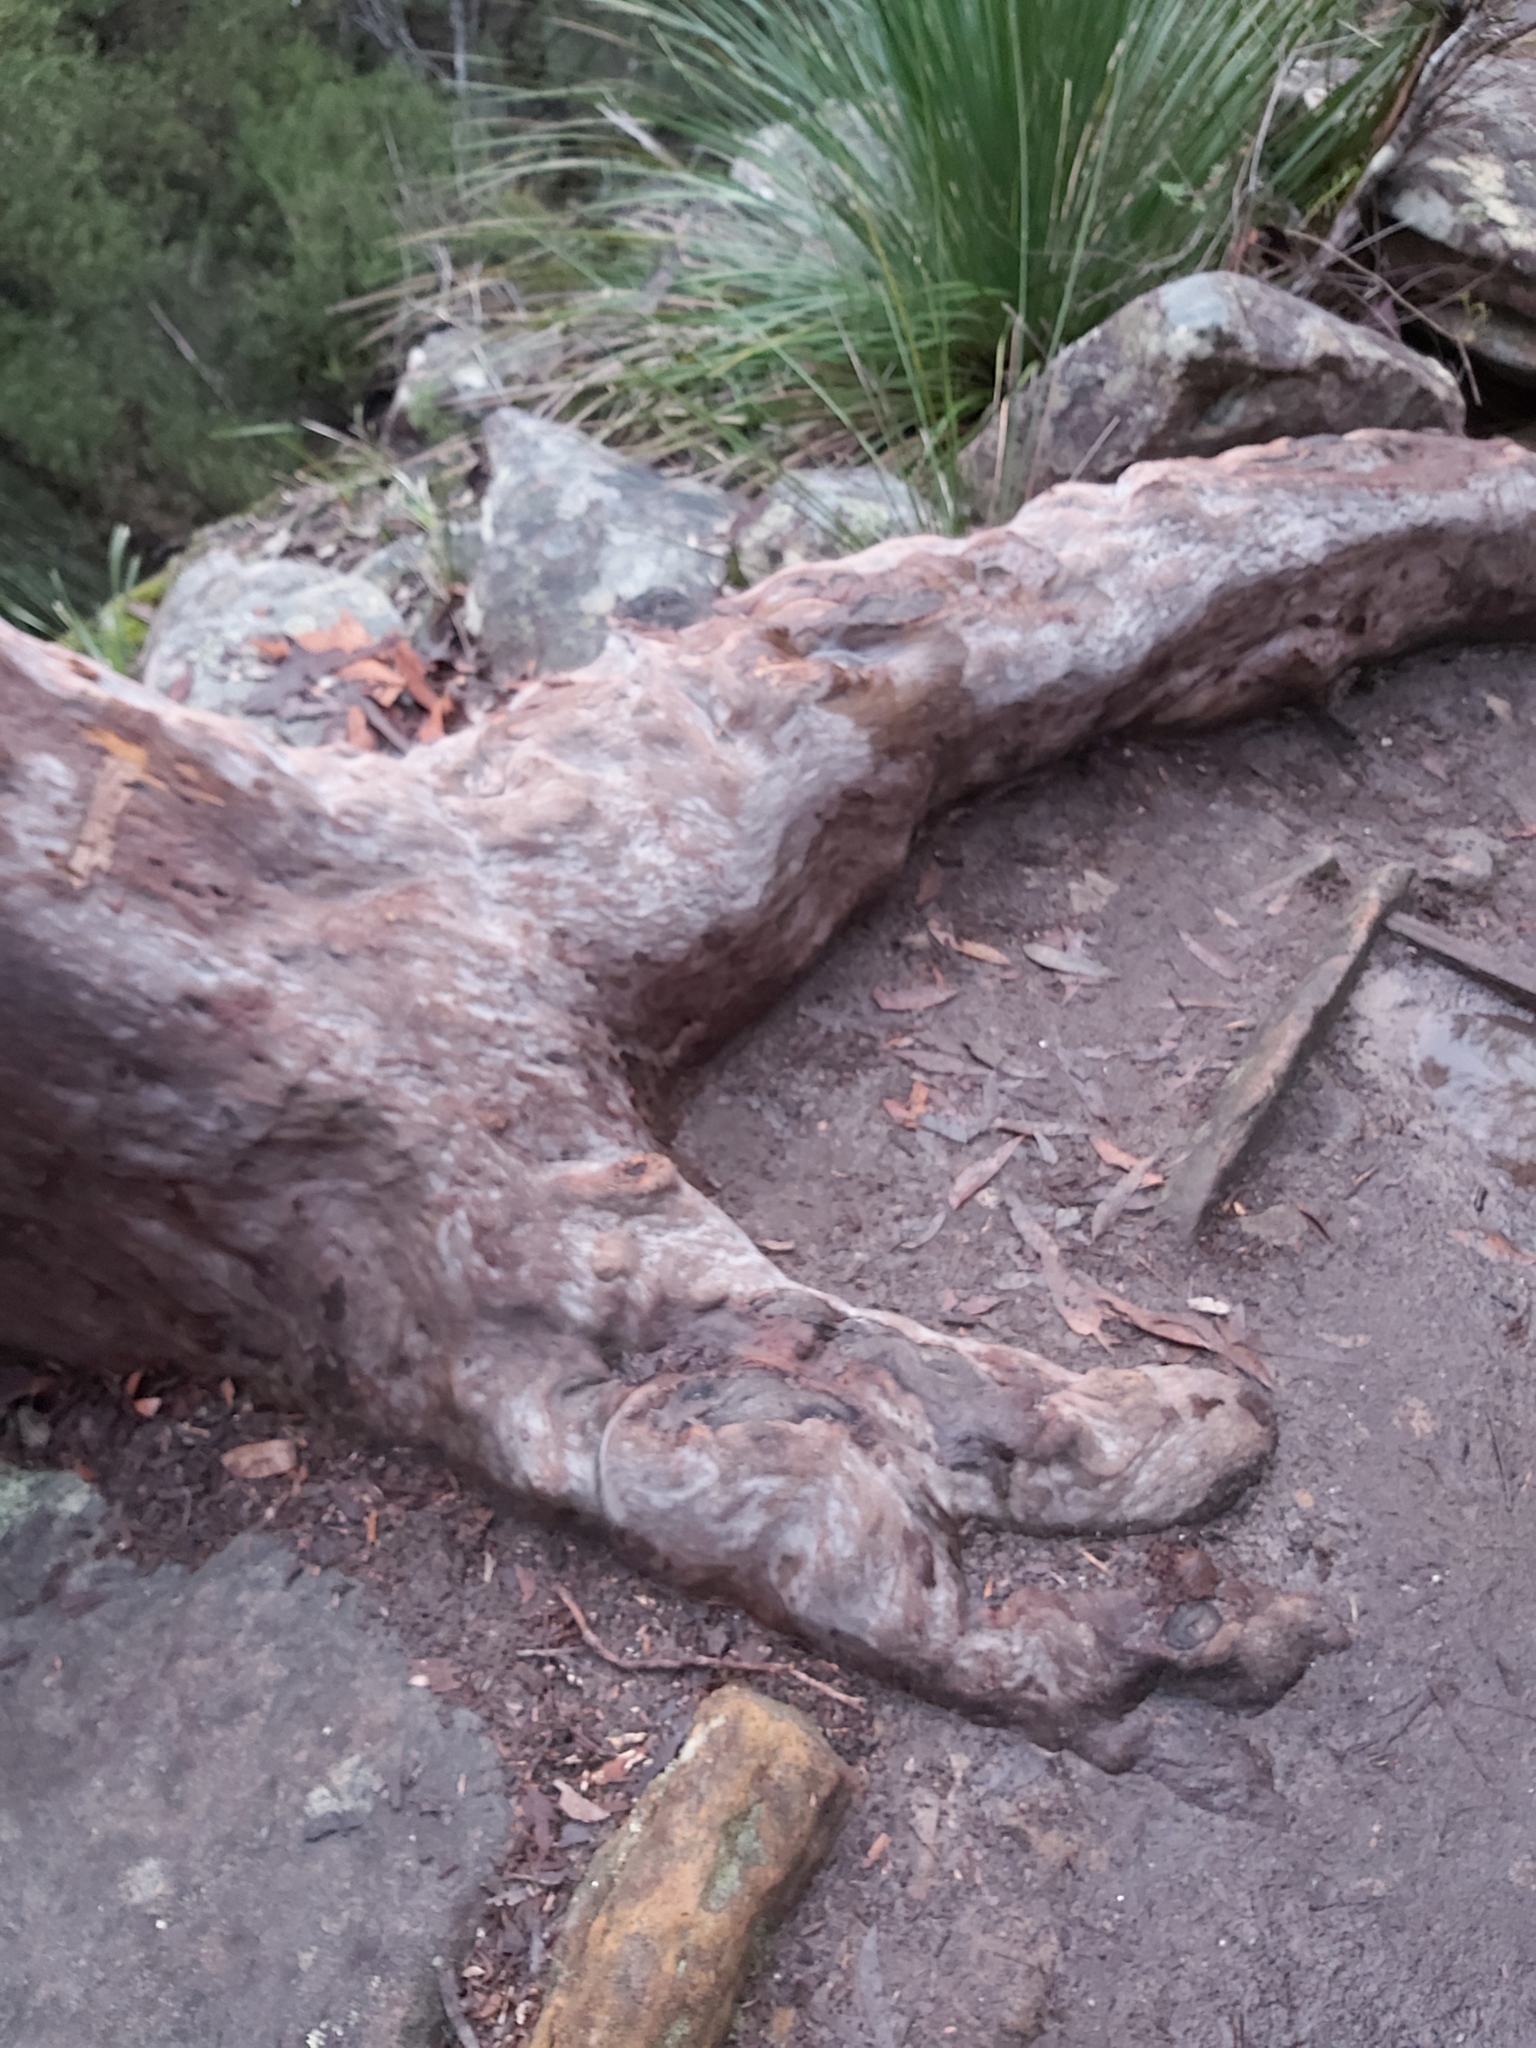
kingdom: Plantae
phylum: Tracheophyta
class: Magnoliopsida
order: Myrtales
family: Myrtaceae
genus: Angophora
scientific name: Angophora costata
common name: Gum myrtle
